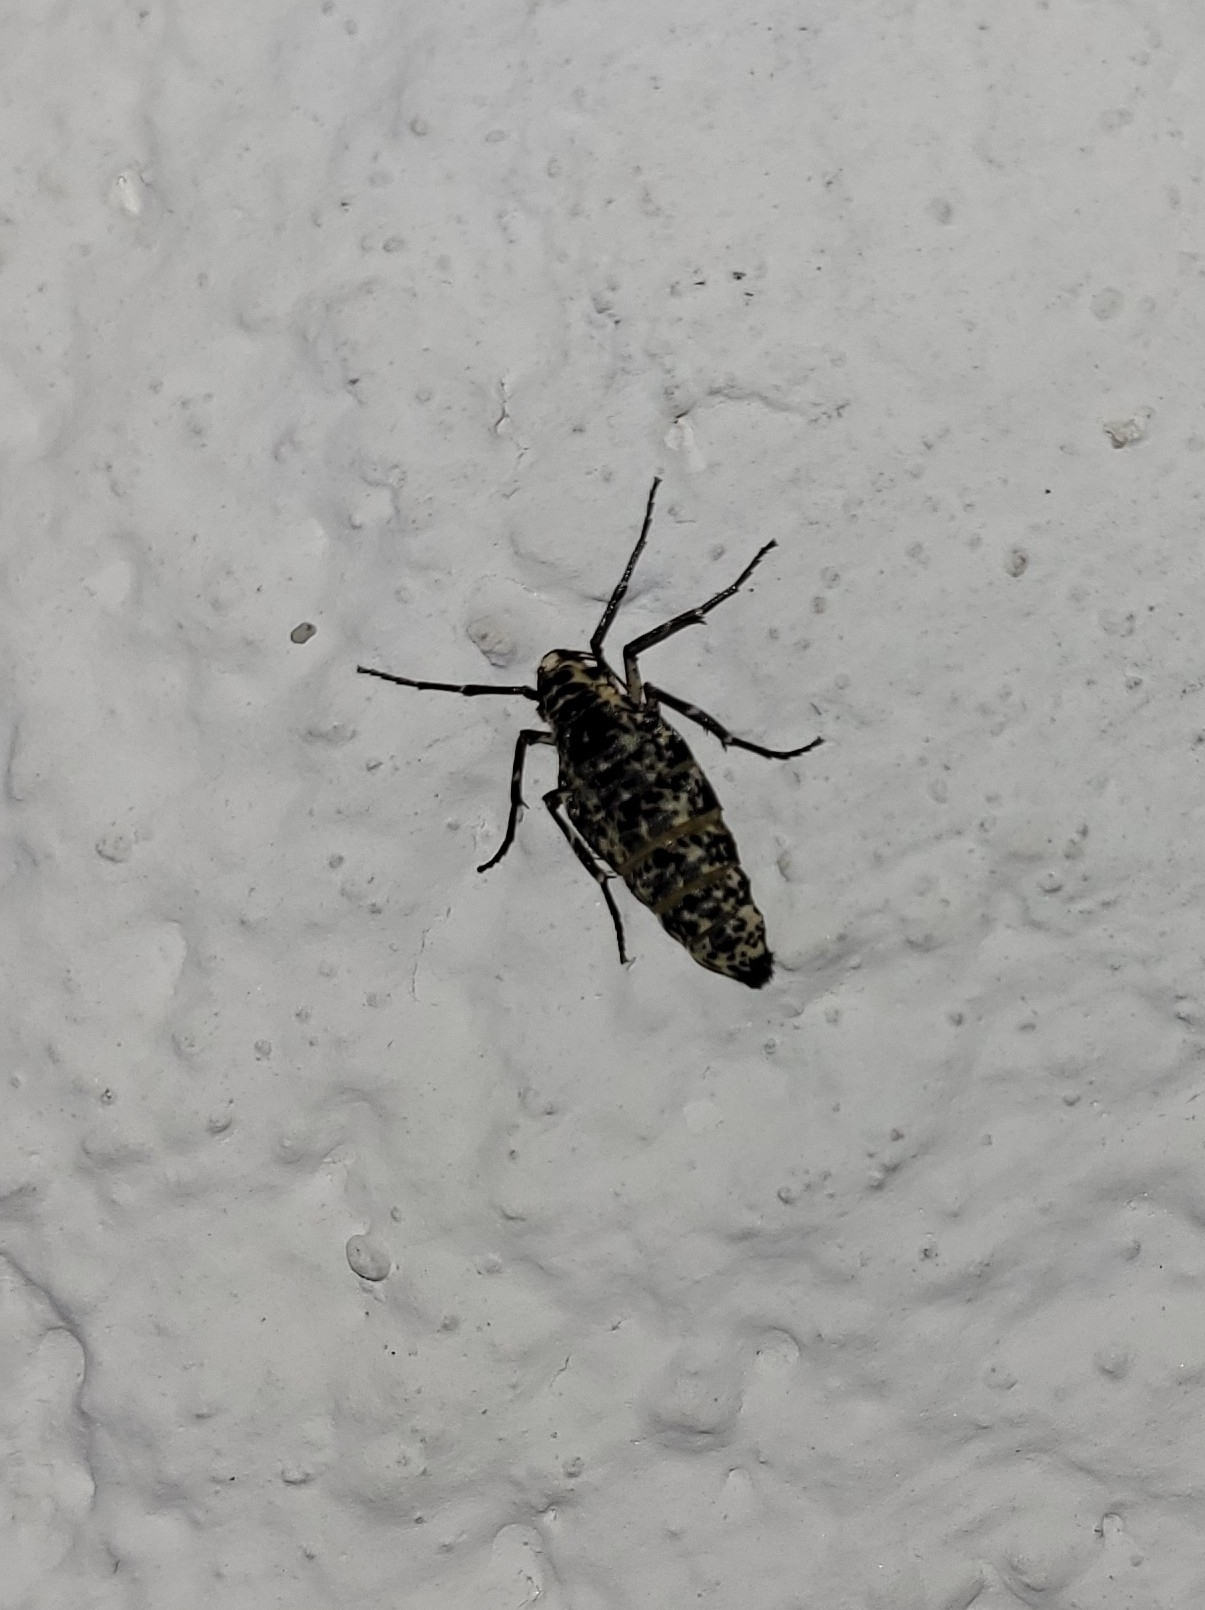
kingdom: Animalia
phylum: Arthropoda
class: Insecta
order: Lepidoptera
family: Geometridae
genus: Erannis
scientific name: Erannis defoliaria
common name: Mottled umber
